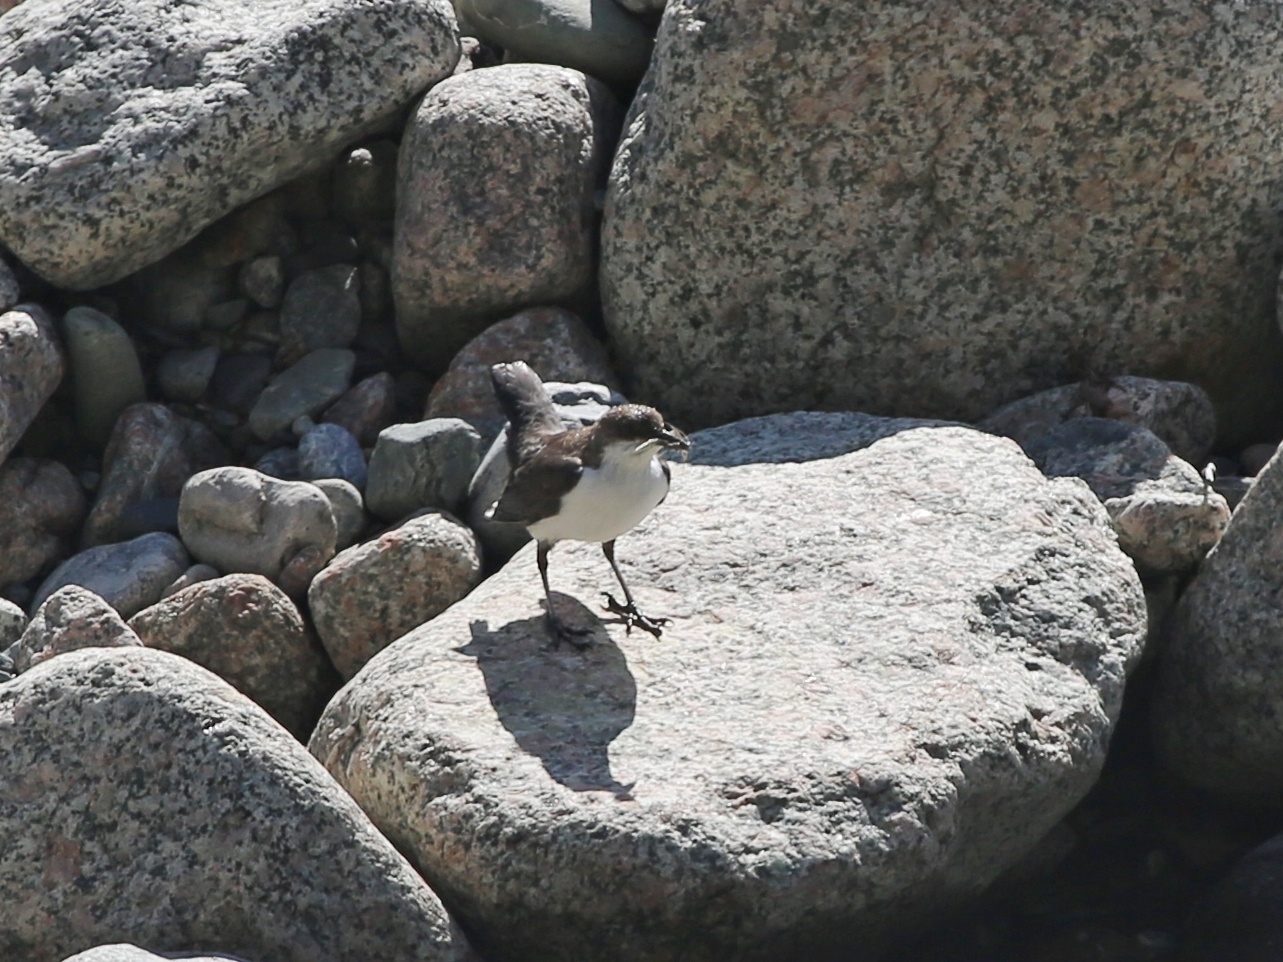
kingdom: Animalia
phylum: Chordata
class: Aves
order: Passeriformes
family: Cinclidae
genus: Cinclus
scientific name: Cinclus cinclus
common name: White-throated dipper
